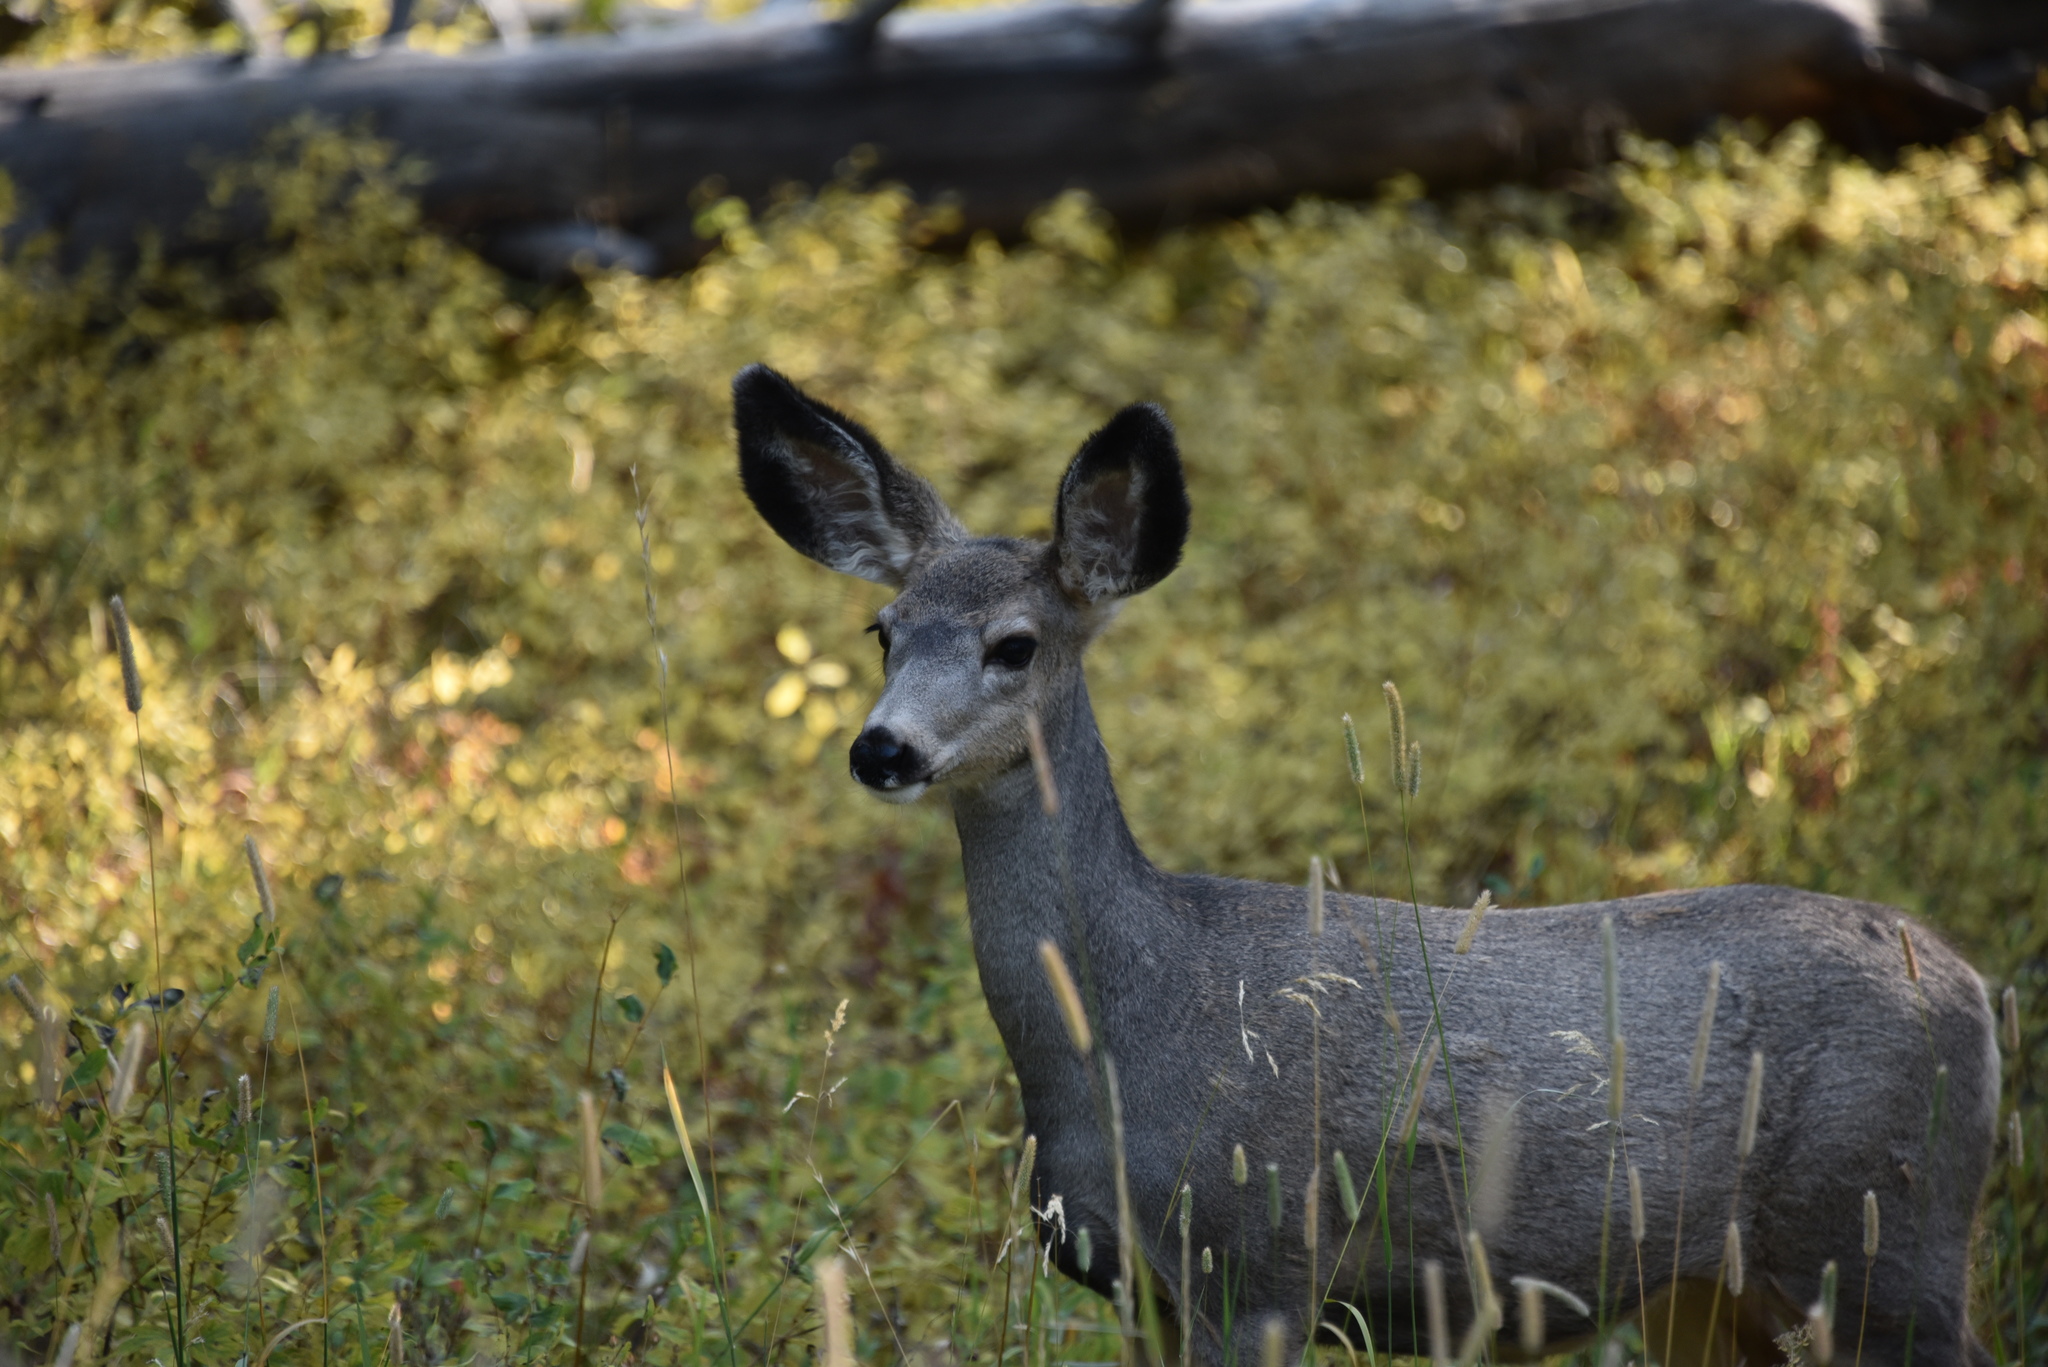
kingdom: Animalia
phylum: Chordata
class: Mammalia
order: Artiodactyla
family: Cervidae
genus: Odocoileus
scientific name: Odocoileus hemionus
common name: Mule deer
